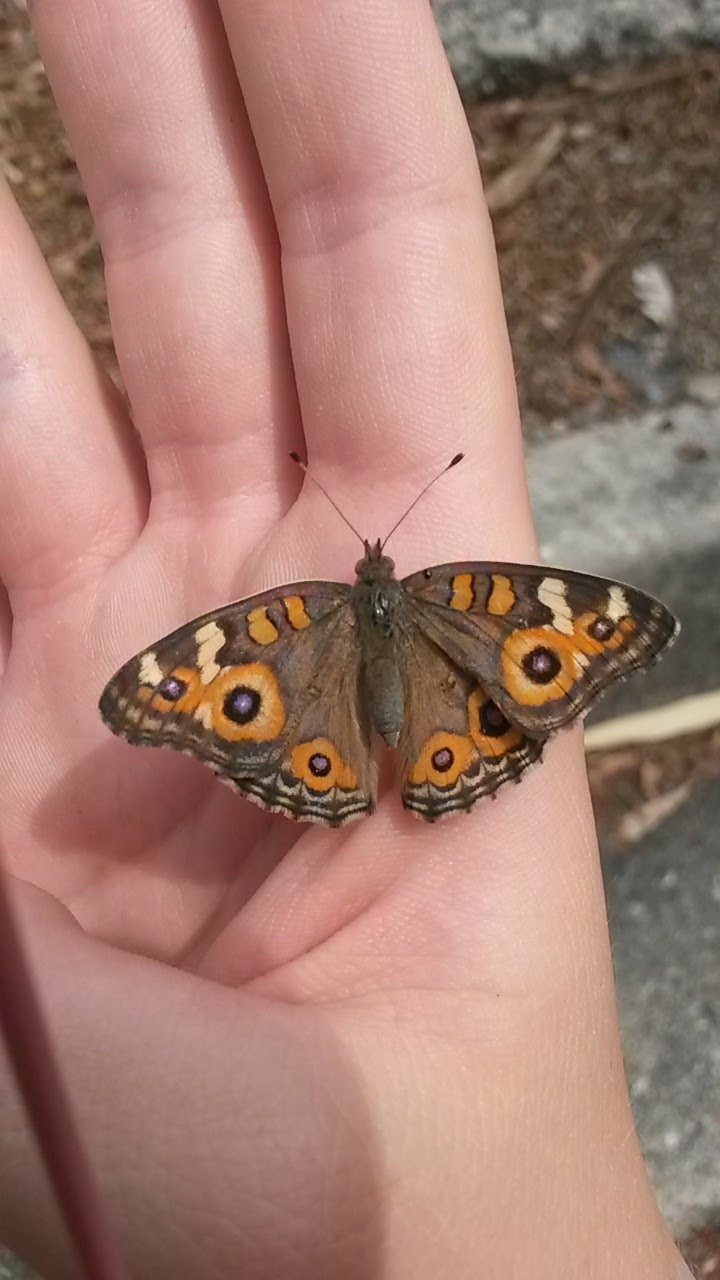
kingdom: Animalia
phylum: Arthropoda
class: Insecta
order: Lepidoptera
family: Nymphalidae
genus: Junonia
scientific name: Junonia villida
